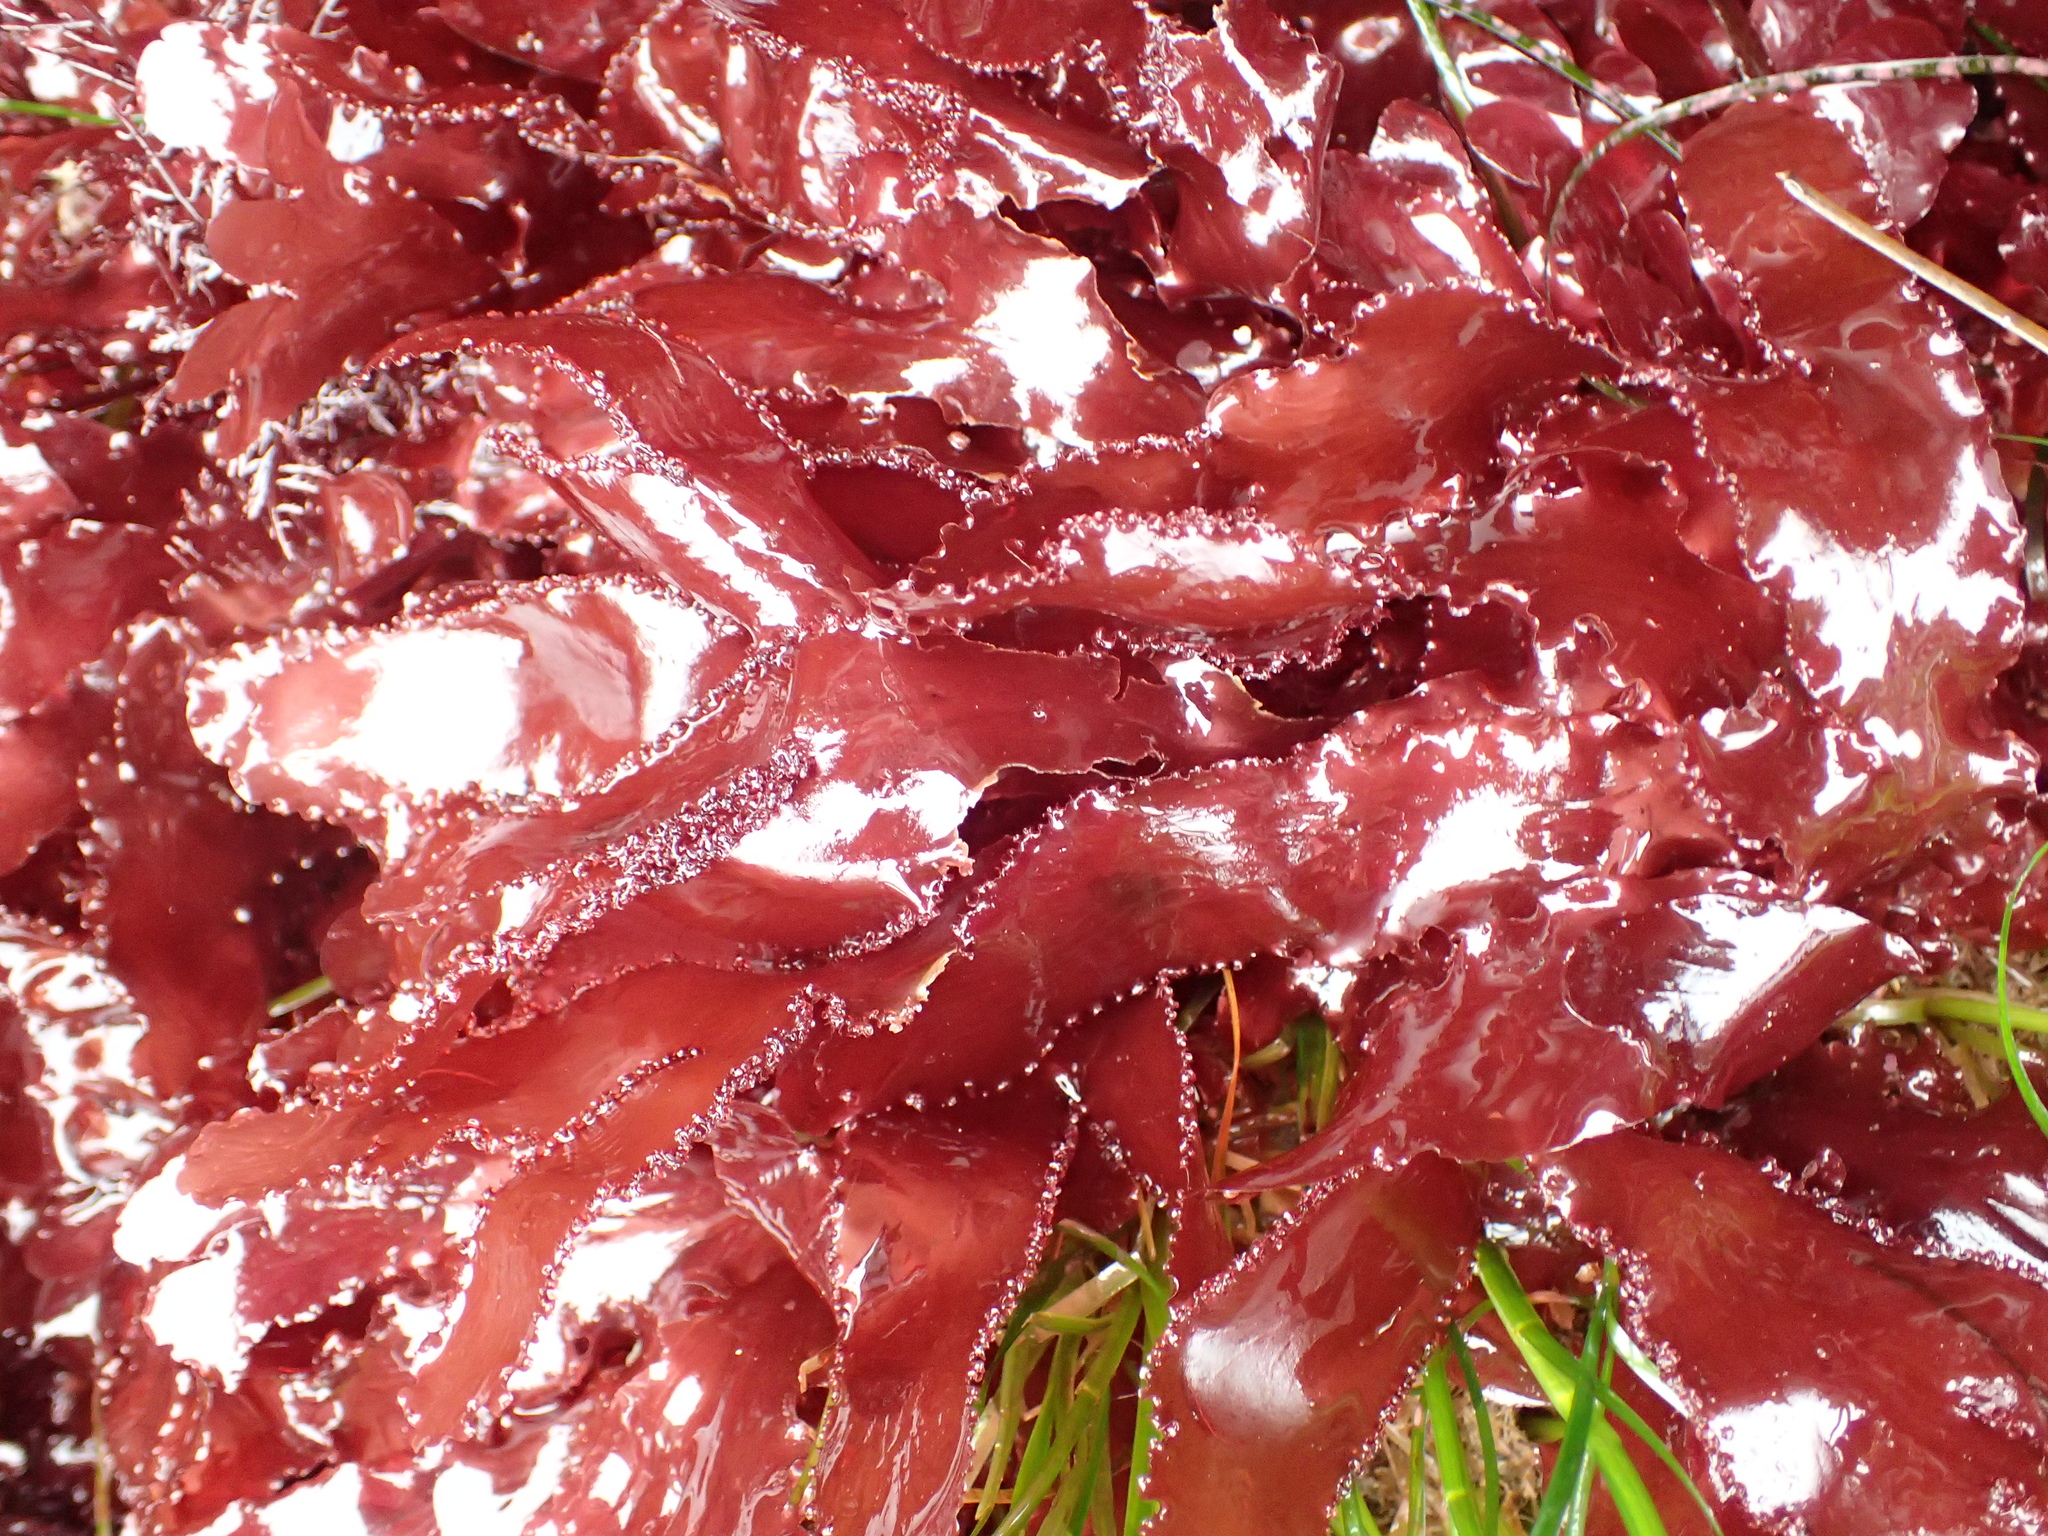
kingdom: Plantae
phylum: Rhodophyta
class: Florideophyceae
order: Ceramiales
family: Delesseriaceae
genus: Cryptopleura
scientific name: Cryptopleura ruprechtiana
